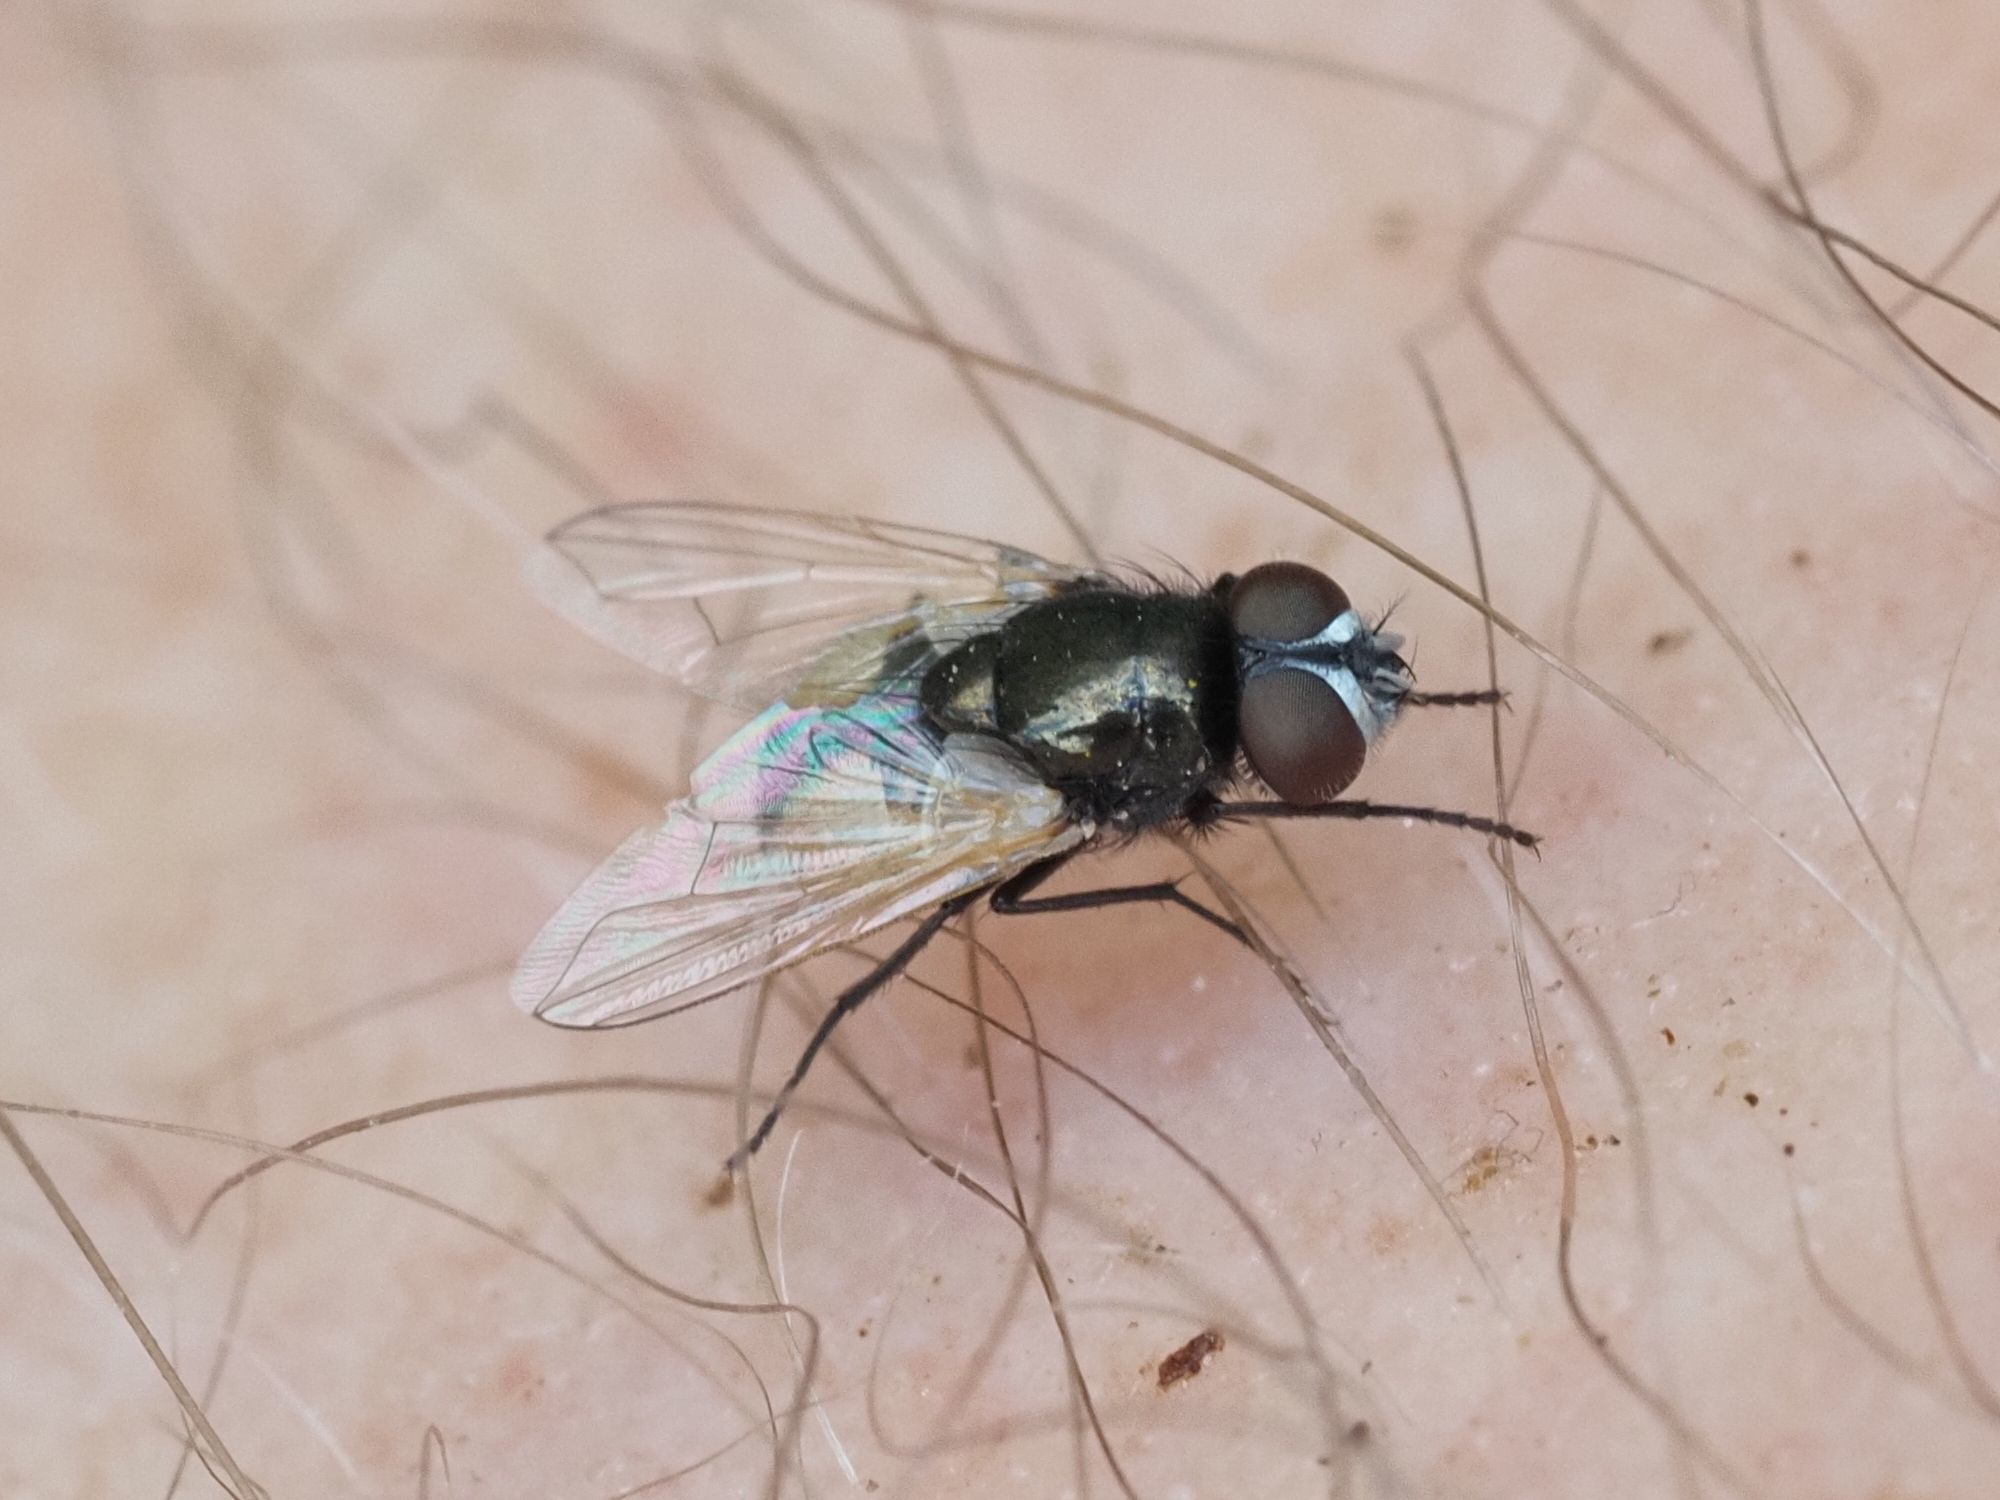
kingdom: Animalia
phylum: Arthropoda
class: Insecta
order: Diptera
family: Muscidae
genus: Musca
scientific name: Musca osiris
